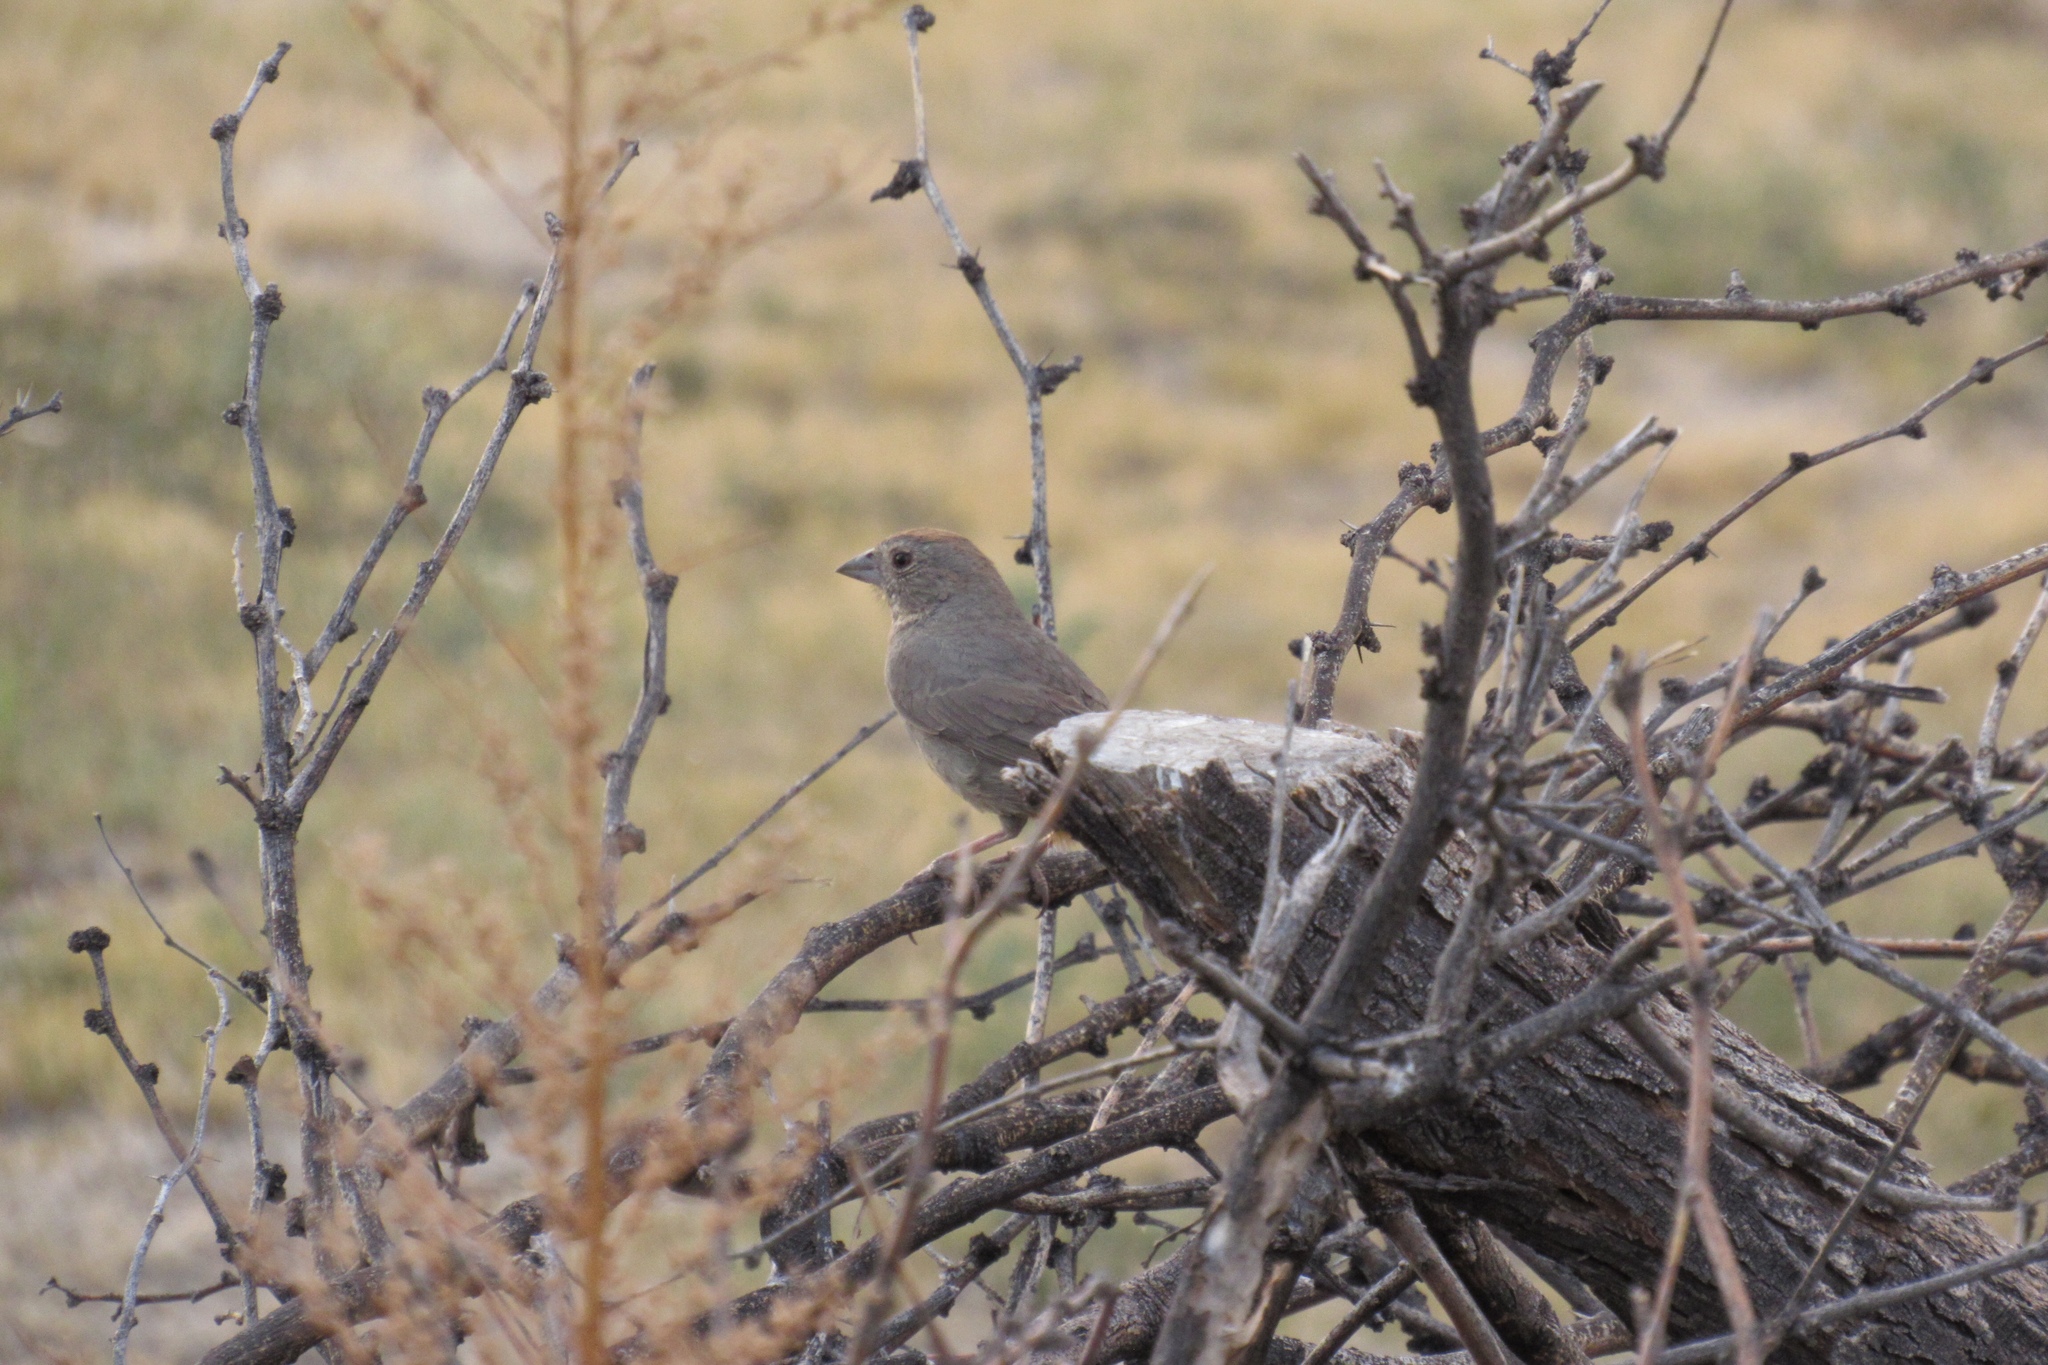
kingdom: Animalia
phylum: Chordata
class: Aves
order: Passeriformes
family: Passerellidae
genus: Melozone
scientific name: Melozone fusca
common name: Canyon towhee
